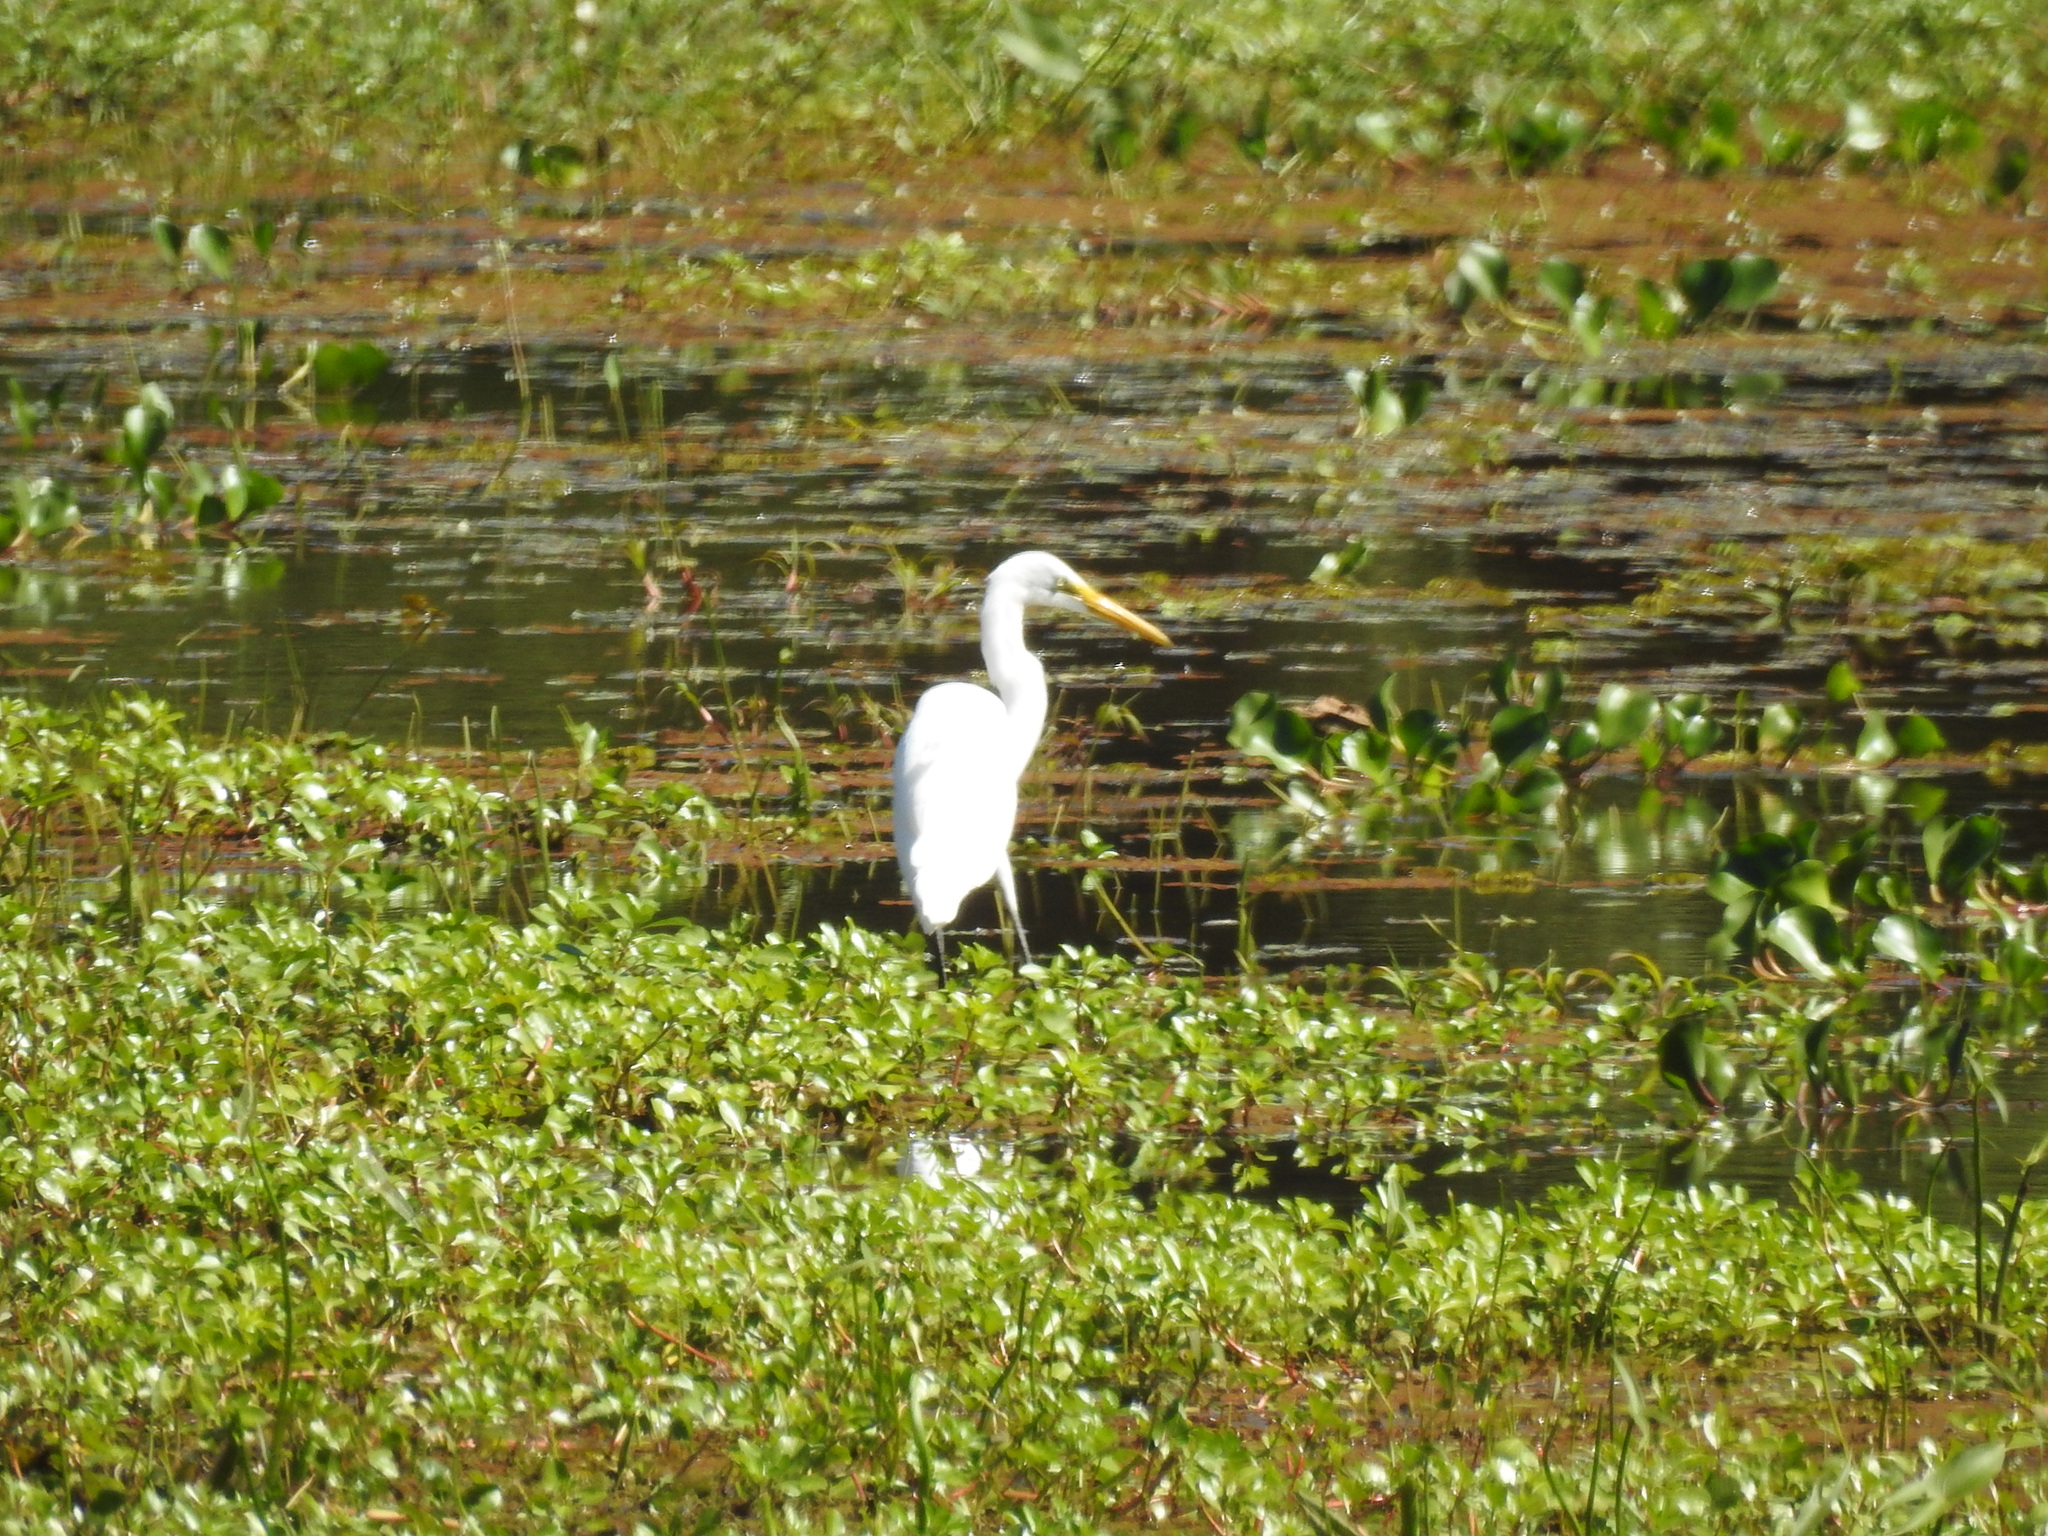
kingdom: Animalia
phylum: Chordata
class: Aves
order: Pelecaniformes
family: Ardeidae
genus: Ardea
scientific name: Ardea alba
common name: Great egret
